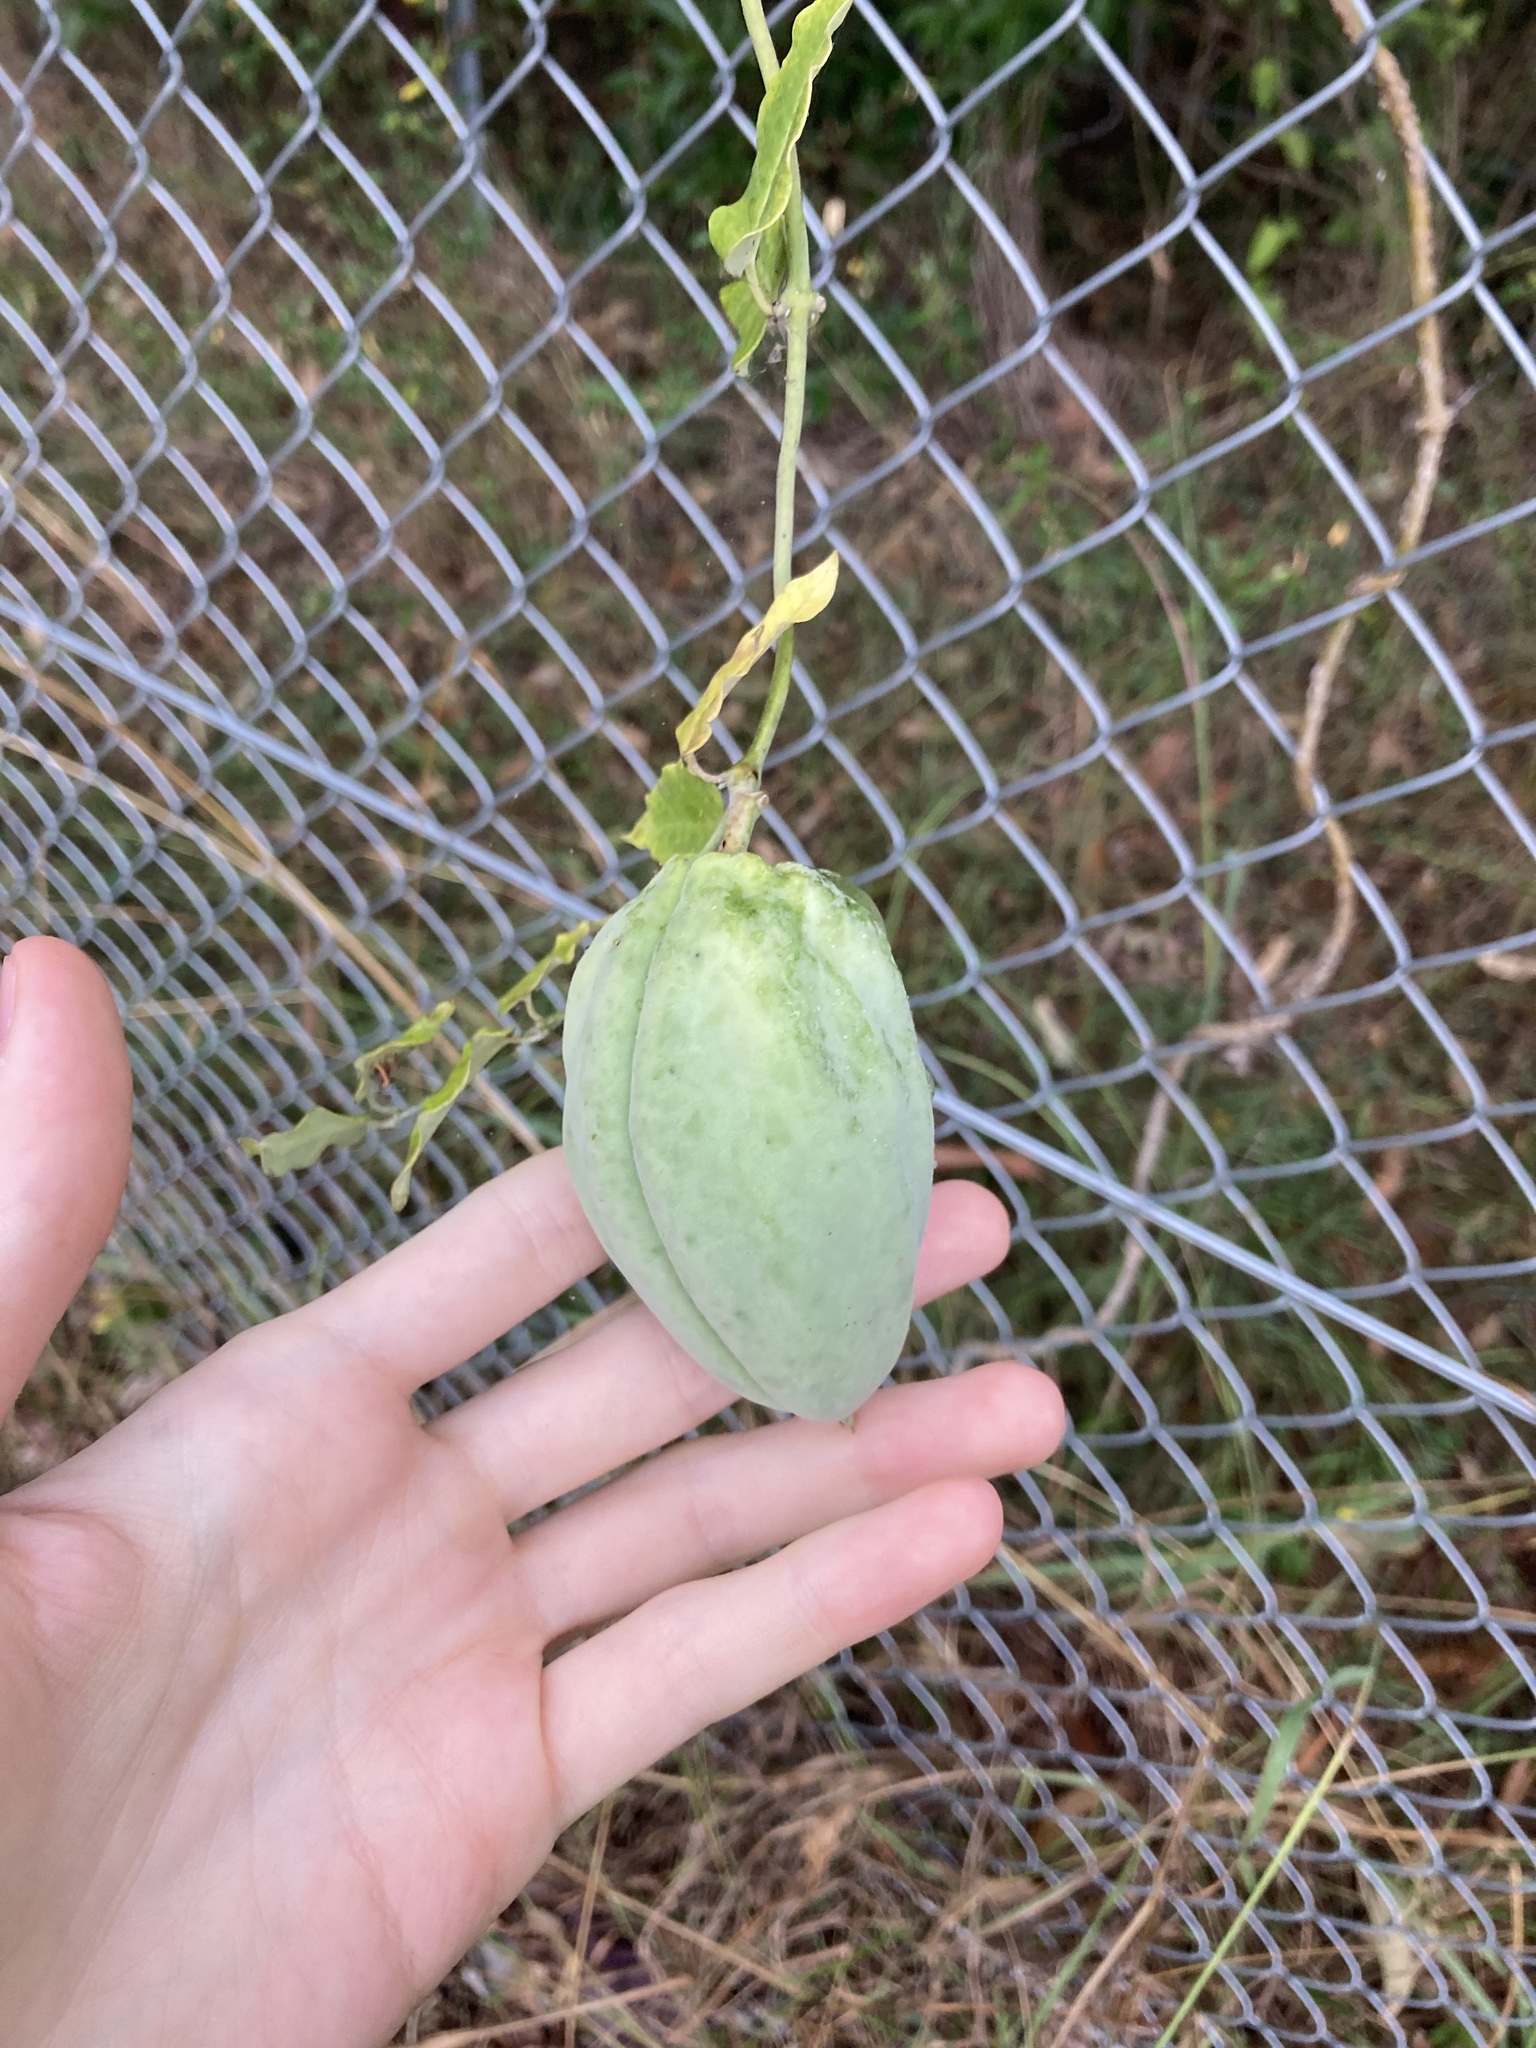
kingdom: Plantae
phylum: Tracheophyta
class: Magnoliopsida
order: Gentianales
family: Apocynaceae
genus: Araujia
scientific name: Araujia sericifera
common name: White bladderflower
